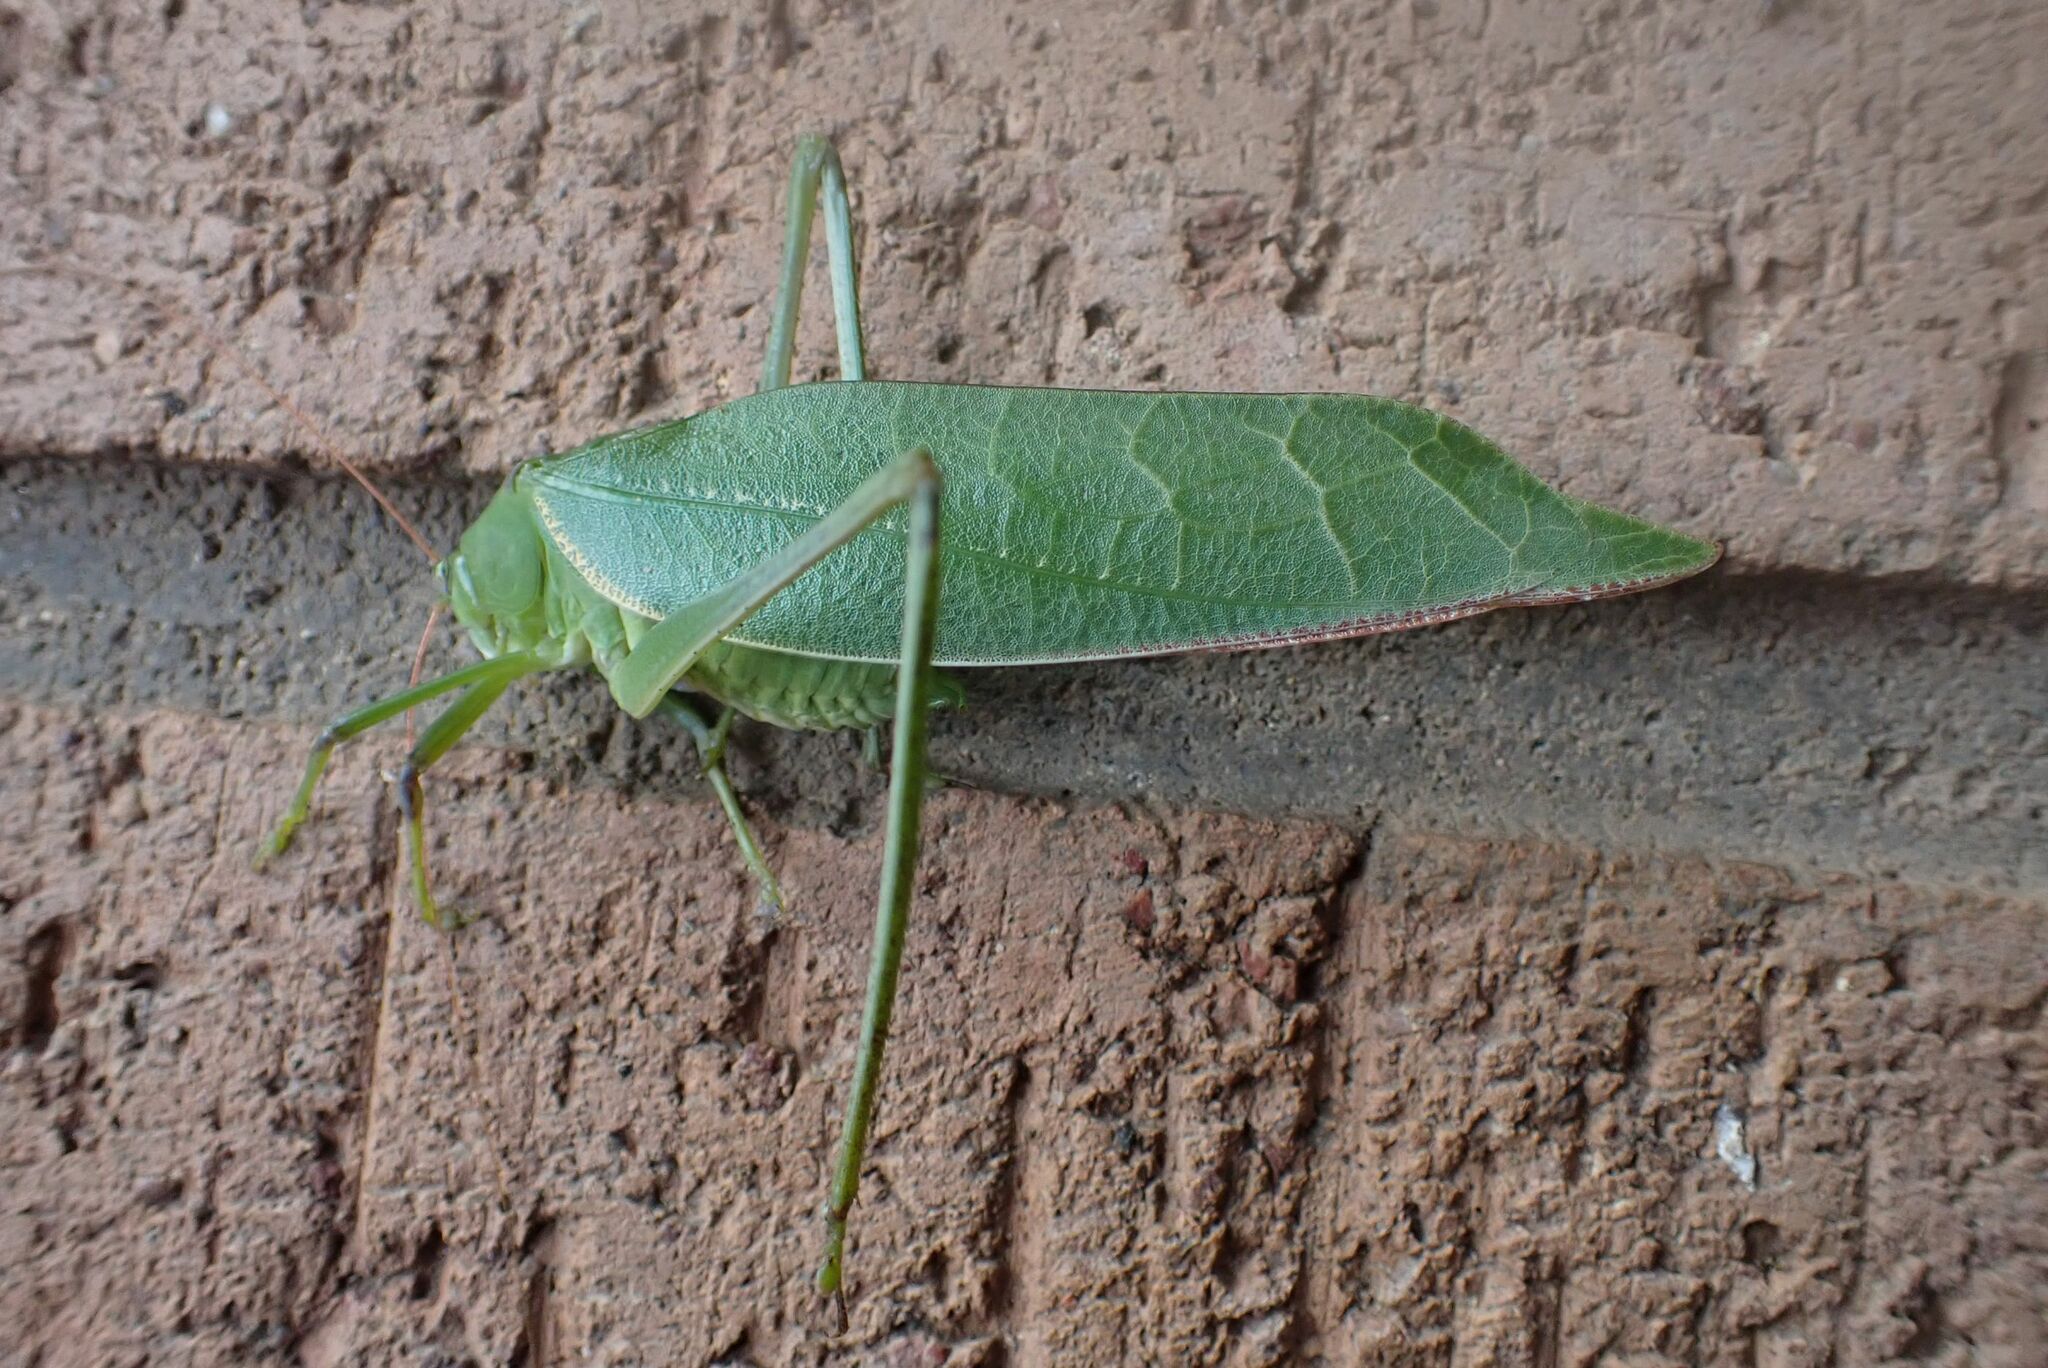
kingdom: Animalia
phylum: Arthropoda
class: Insecta
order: Orthoptera
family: Tettigoniidae
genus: Arantia
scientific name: Arantia tanzanica
